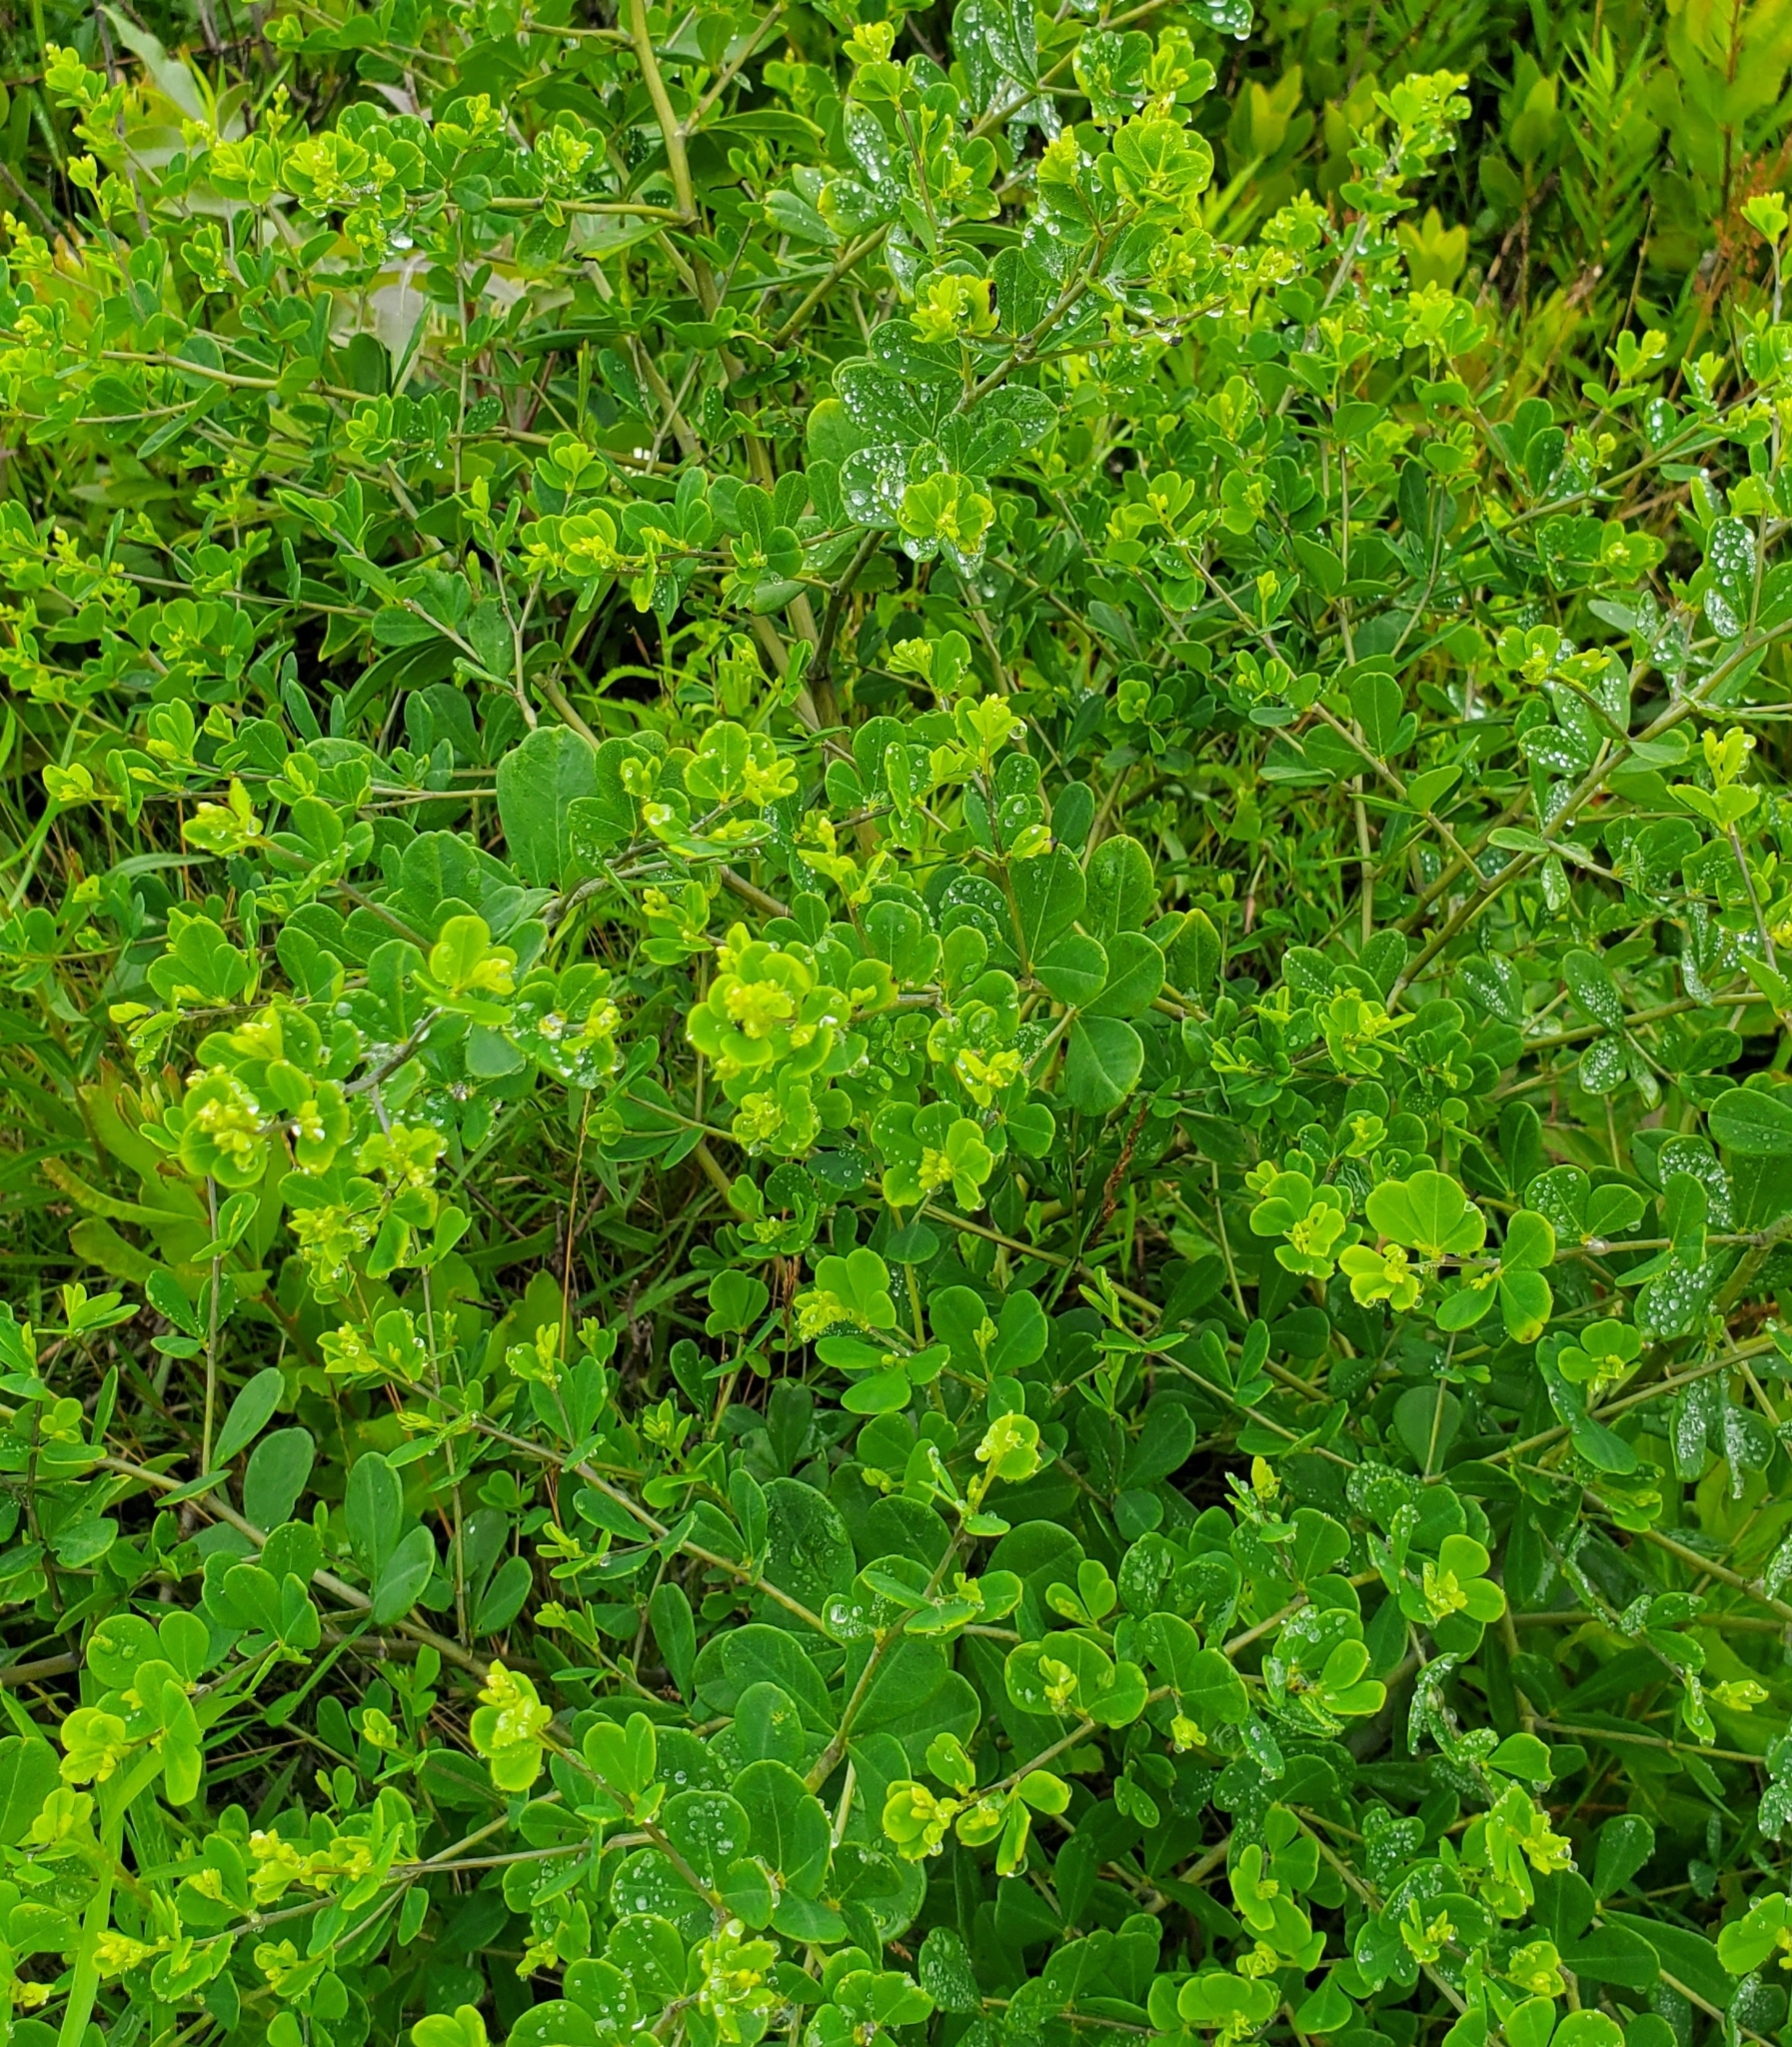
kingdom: Plantae
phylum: Tracheophyta
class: Magnoliopsida
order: Fabales
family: Fabaceae
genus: Baptisia
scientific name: Baptisia tinctoria
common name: Wild indigo
